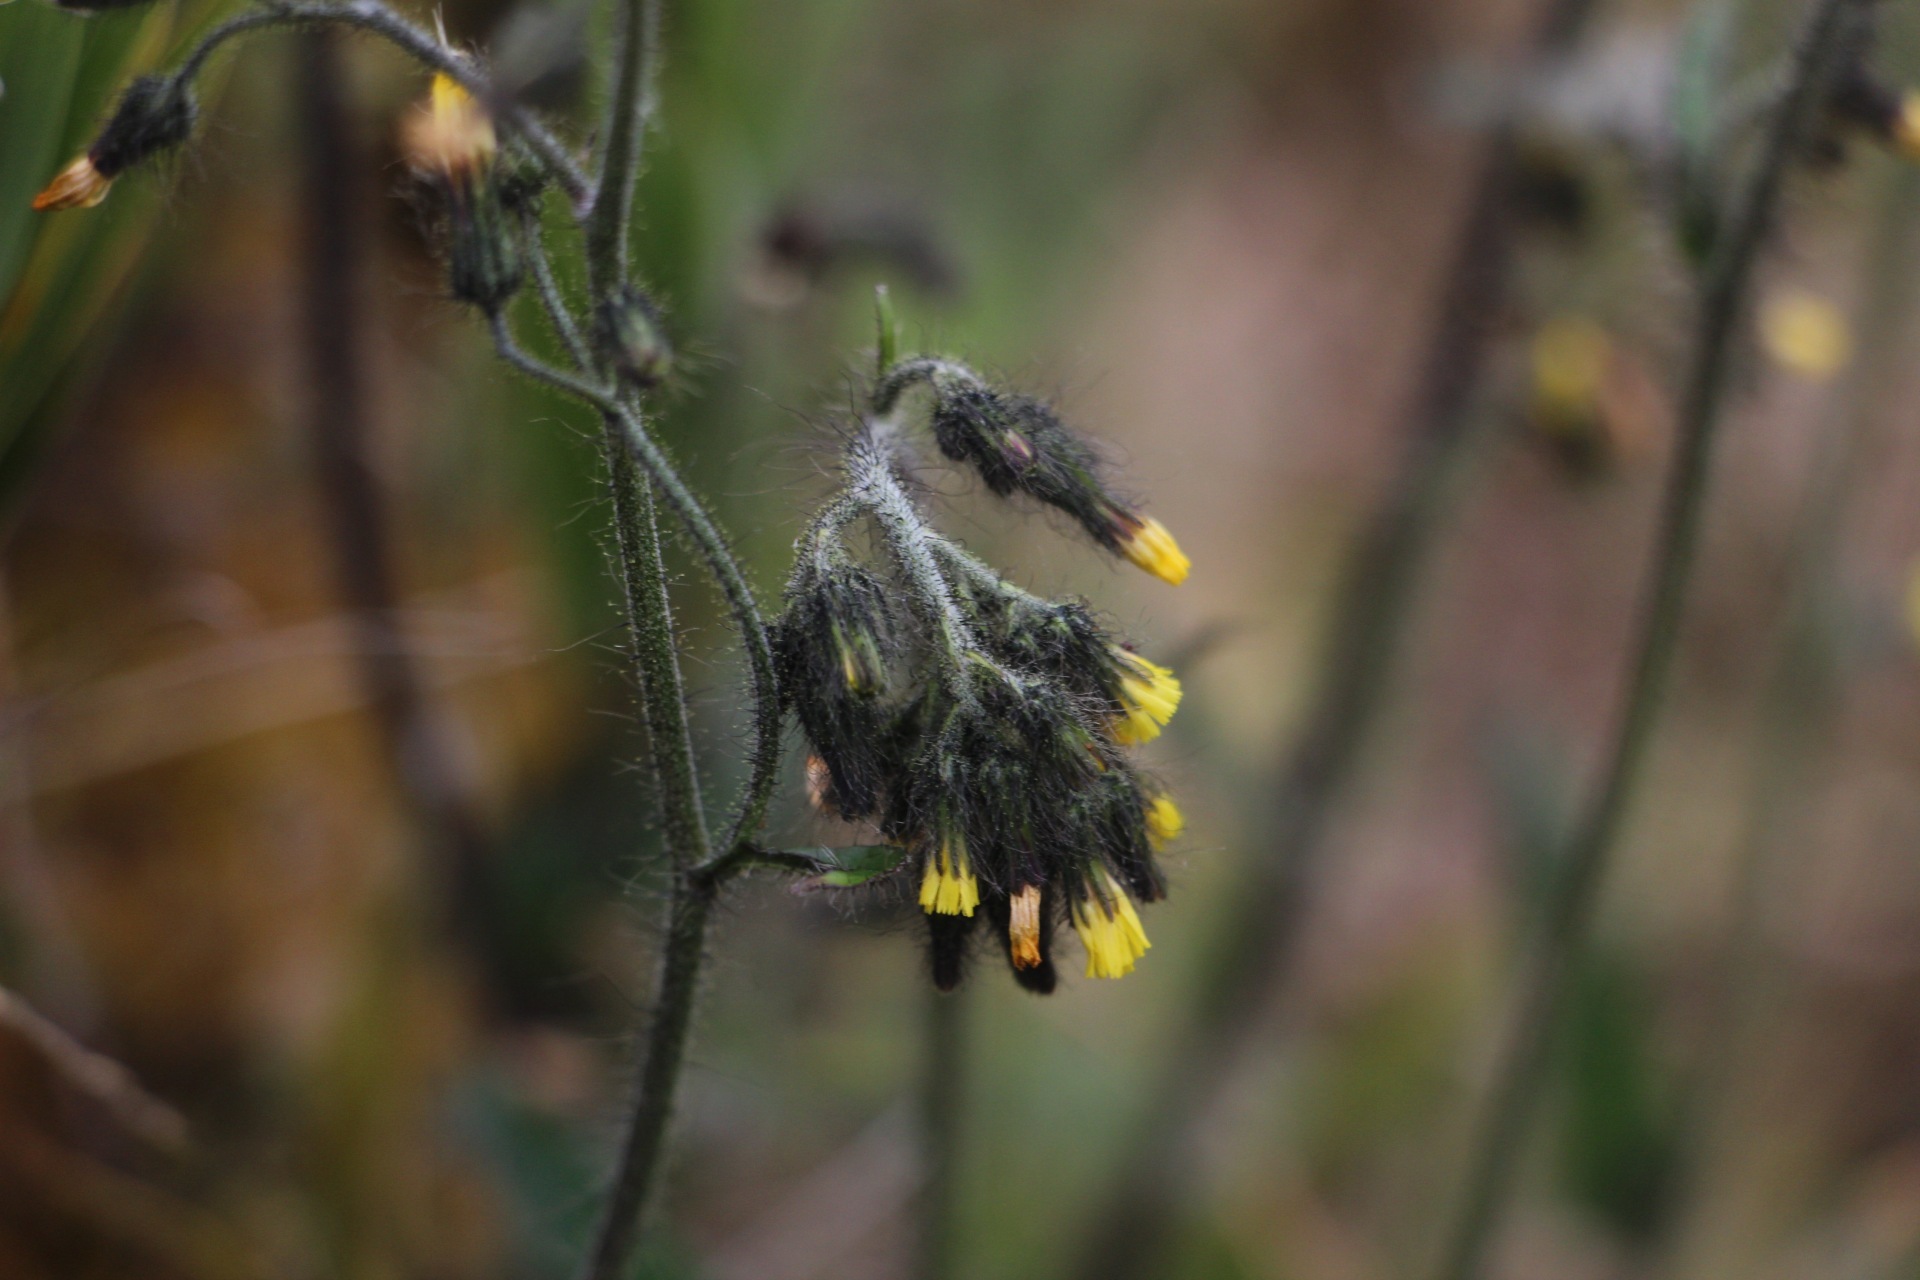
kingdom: Plantae
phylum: Tracheophyta
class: Magnoliopsida
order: Asterales
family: Asteraceae
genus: Hieracium
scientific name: Hieracium avilae
